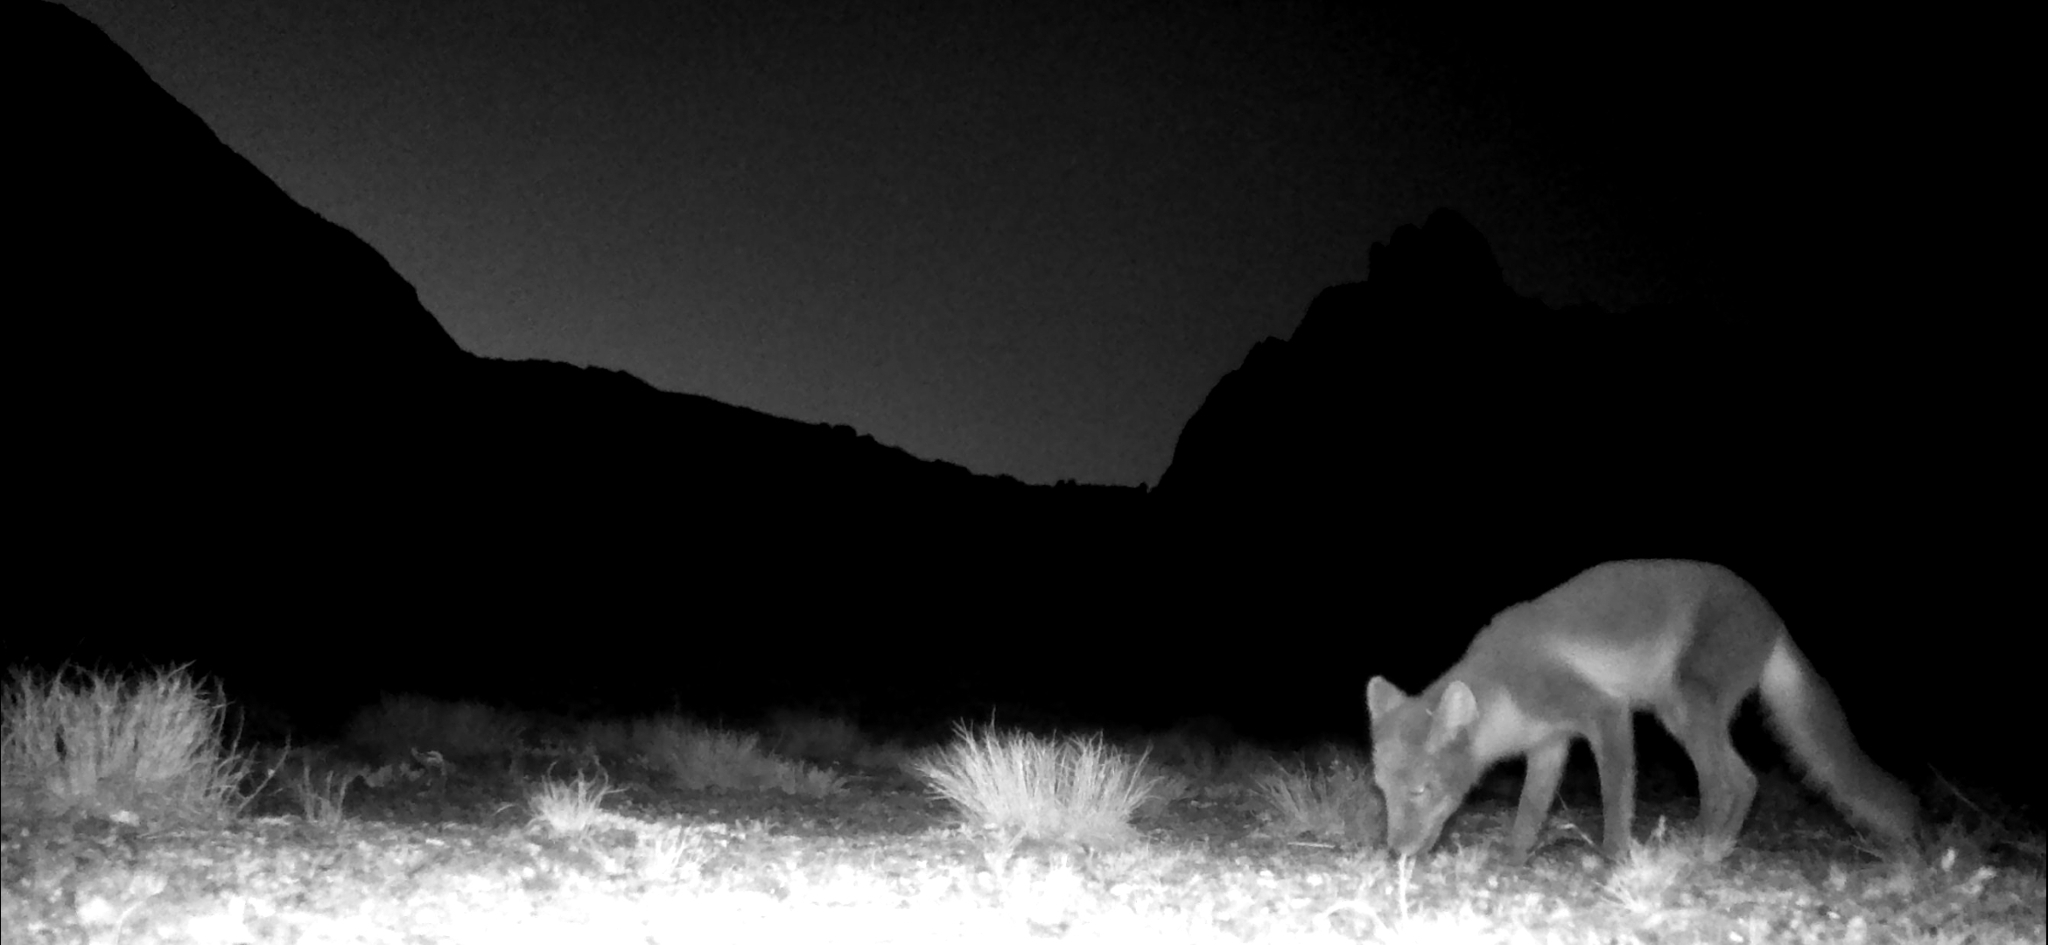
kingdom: Animalia
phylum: Chordata
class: Mammalia
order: Carnivora
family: Canidae
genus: Vulpes
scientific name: Vulpes lagopus
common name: Arctic fox
